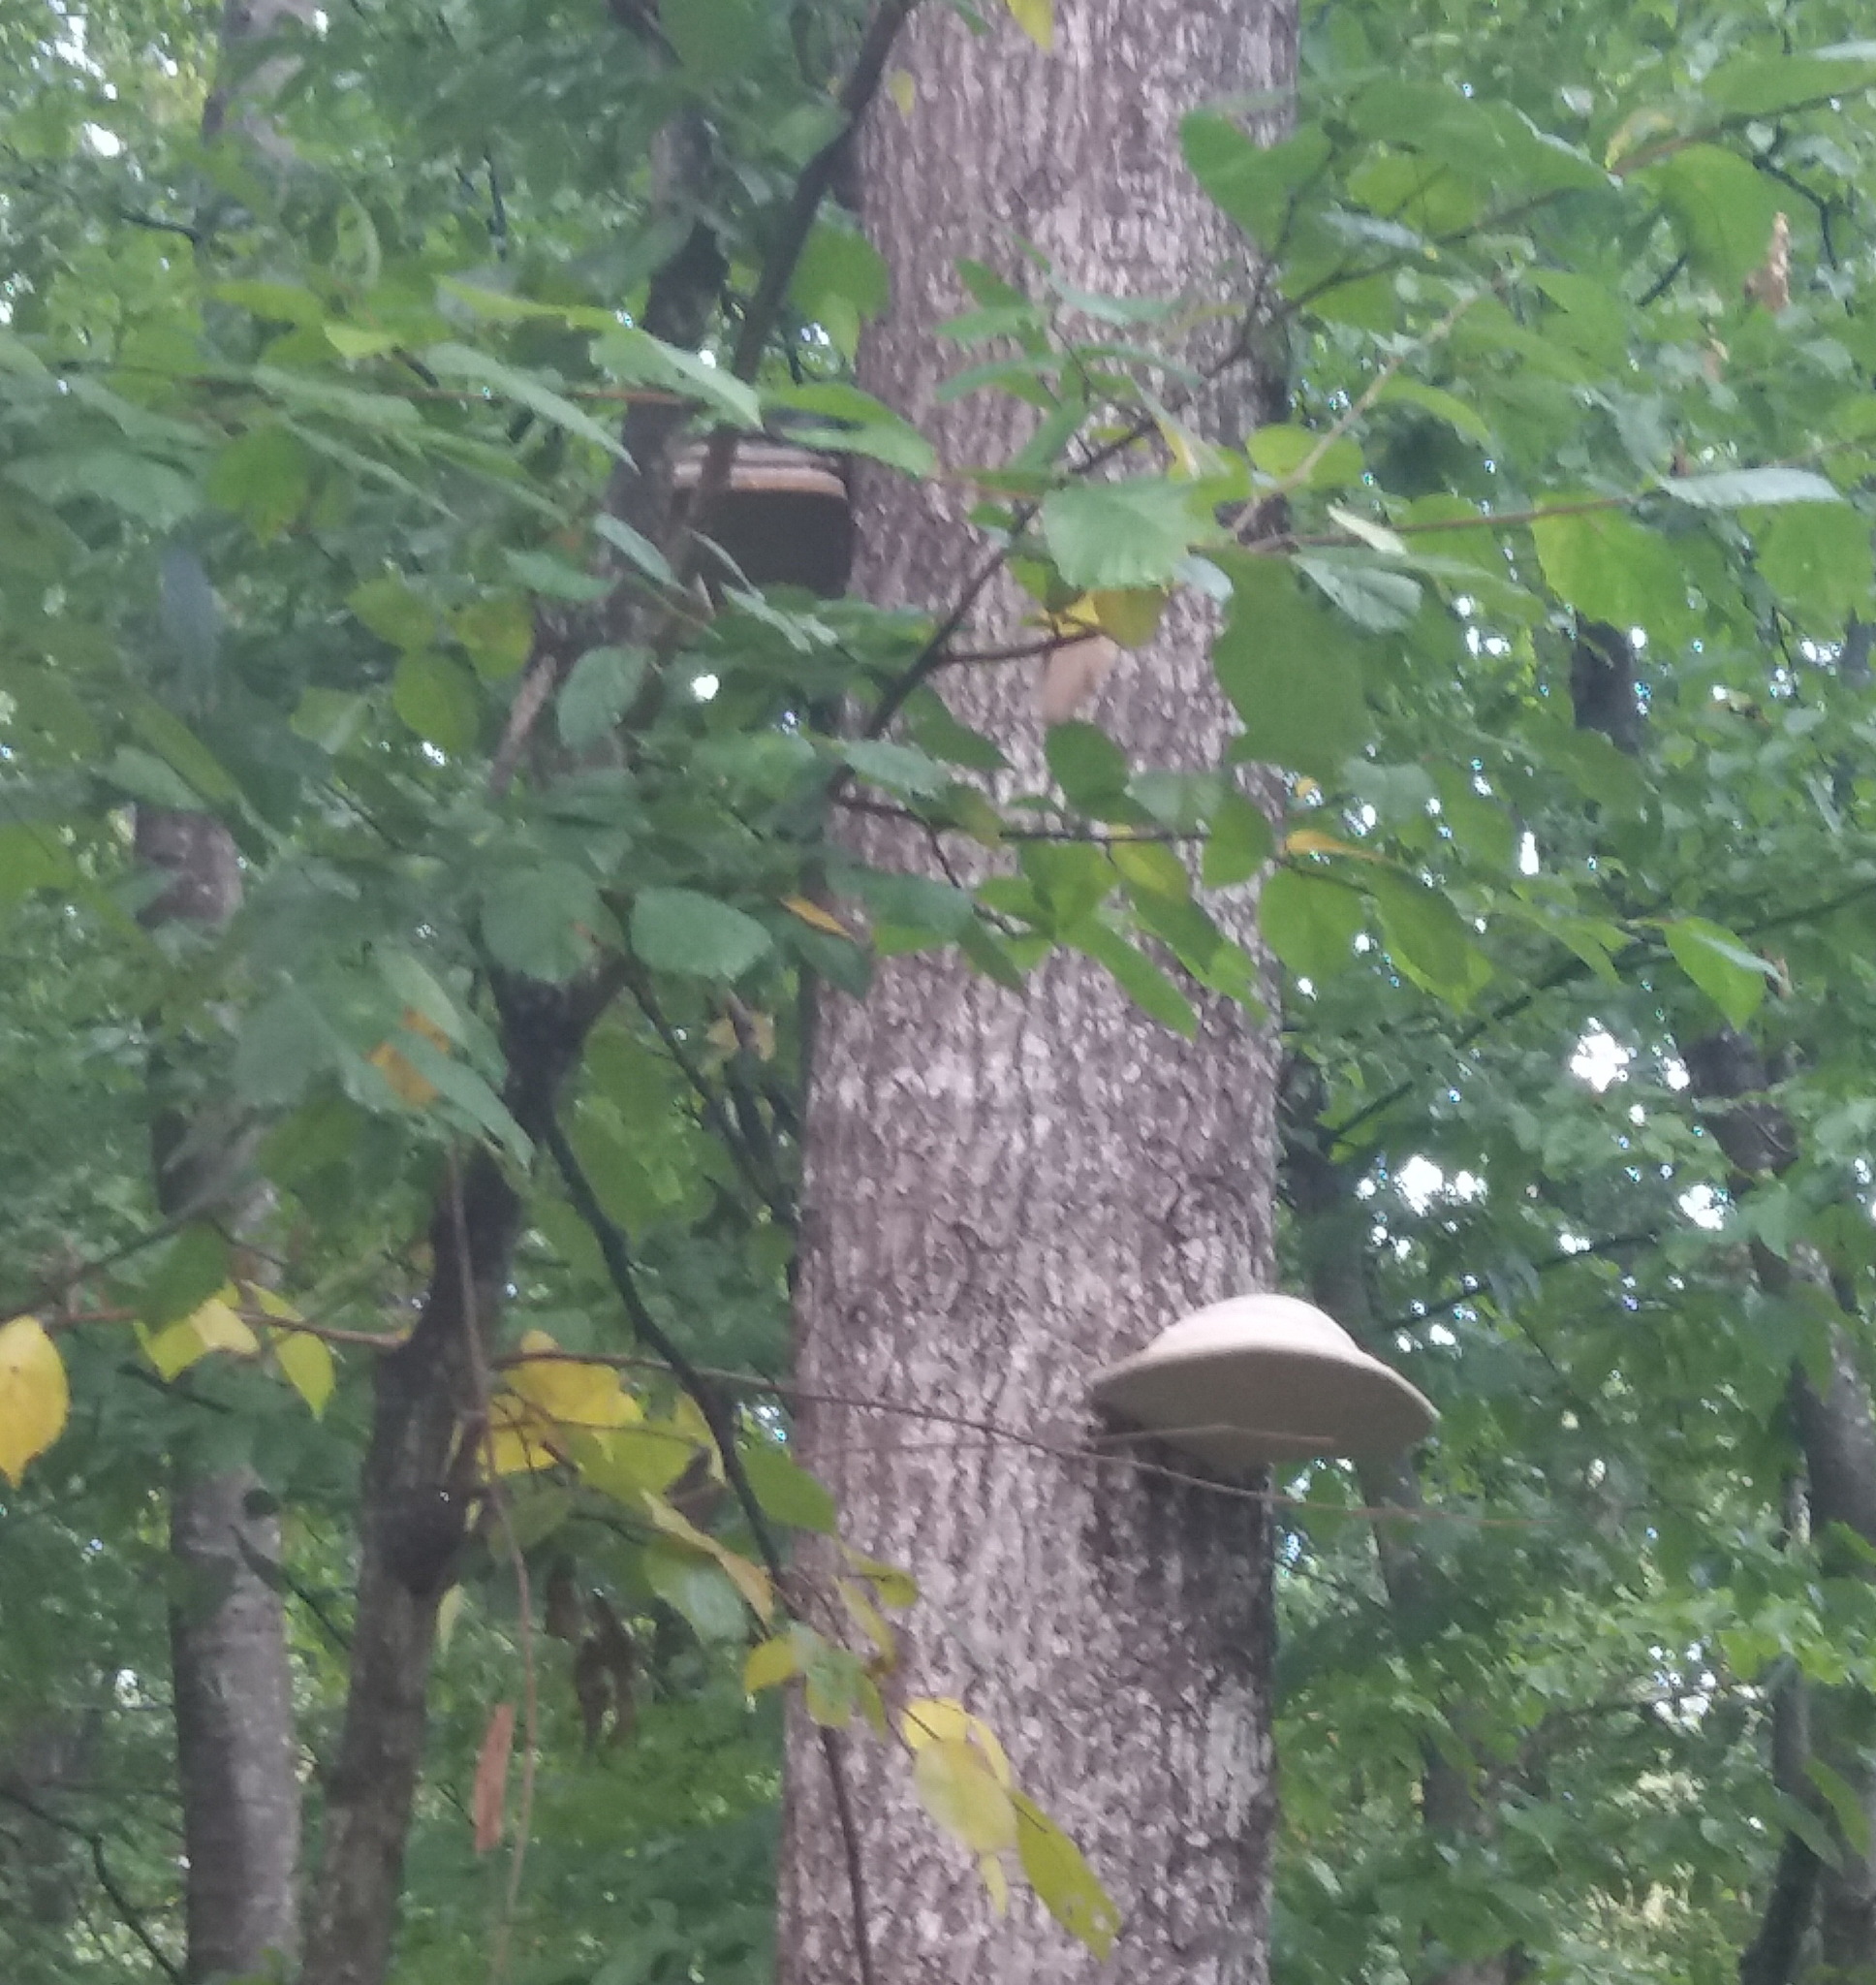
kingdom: Fungi
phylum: Basidiomycota
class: Agaricomycetes
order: Polyporales
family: Polyporaceae
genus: Fomes
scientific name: Fomes fomentarius
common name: Hoof fungus
